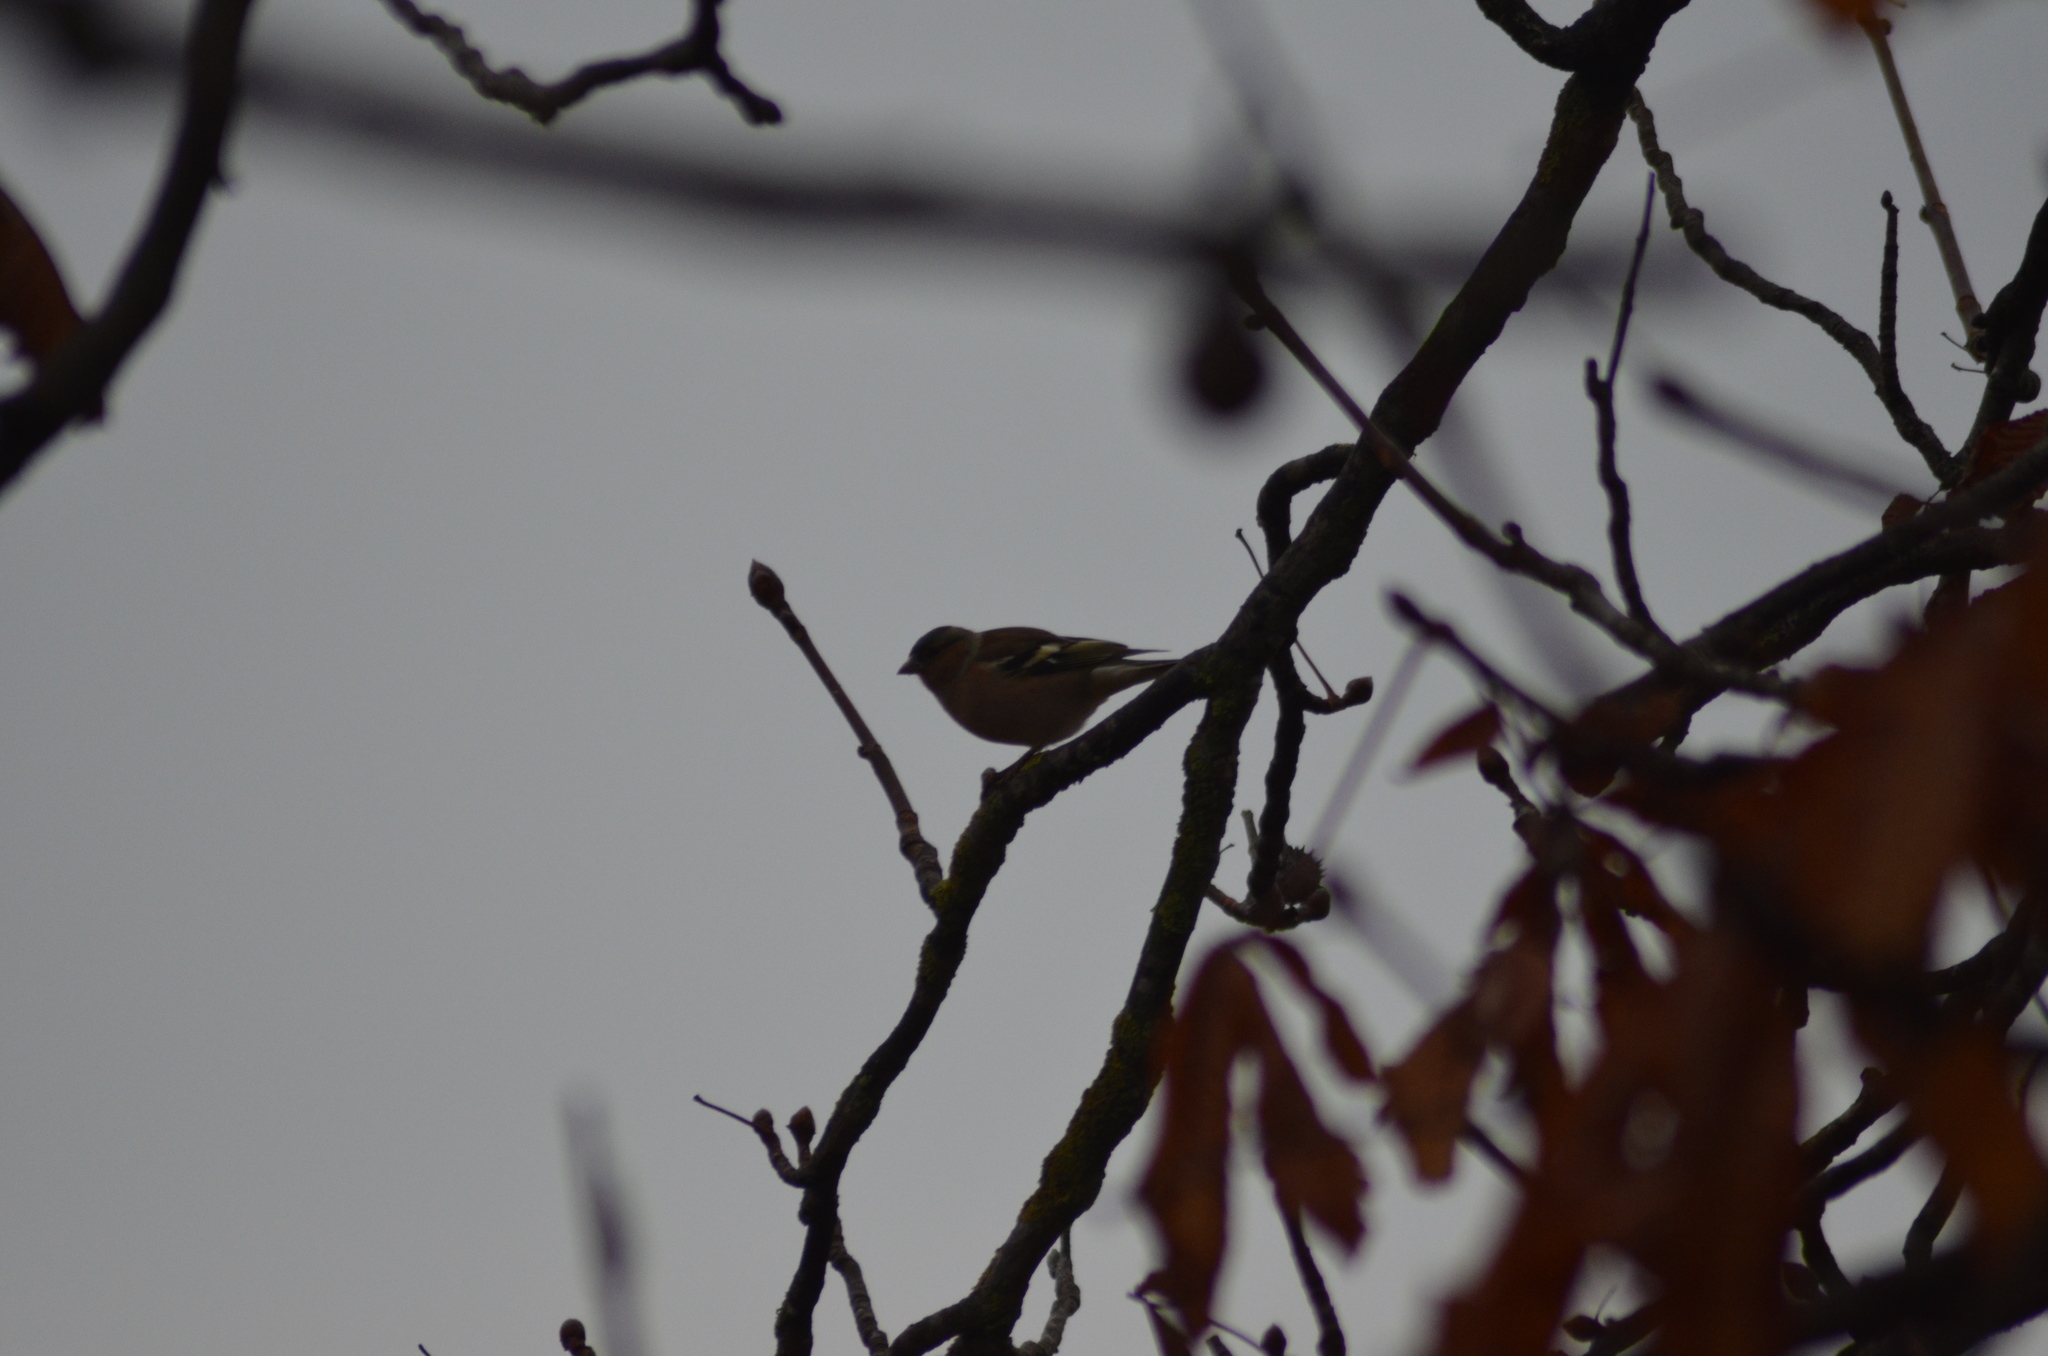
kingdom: Animalia
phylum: Chordata
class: Aves
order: Passeriformes
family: Fringillidae
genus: Fringilla
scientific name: Fringilla coelebs
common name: Common chaffinch
